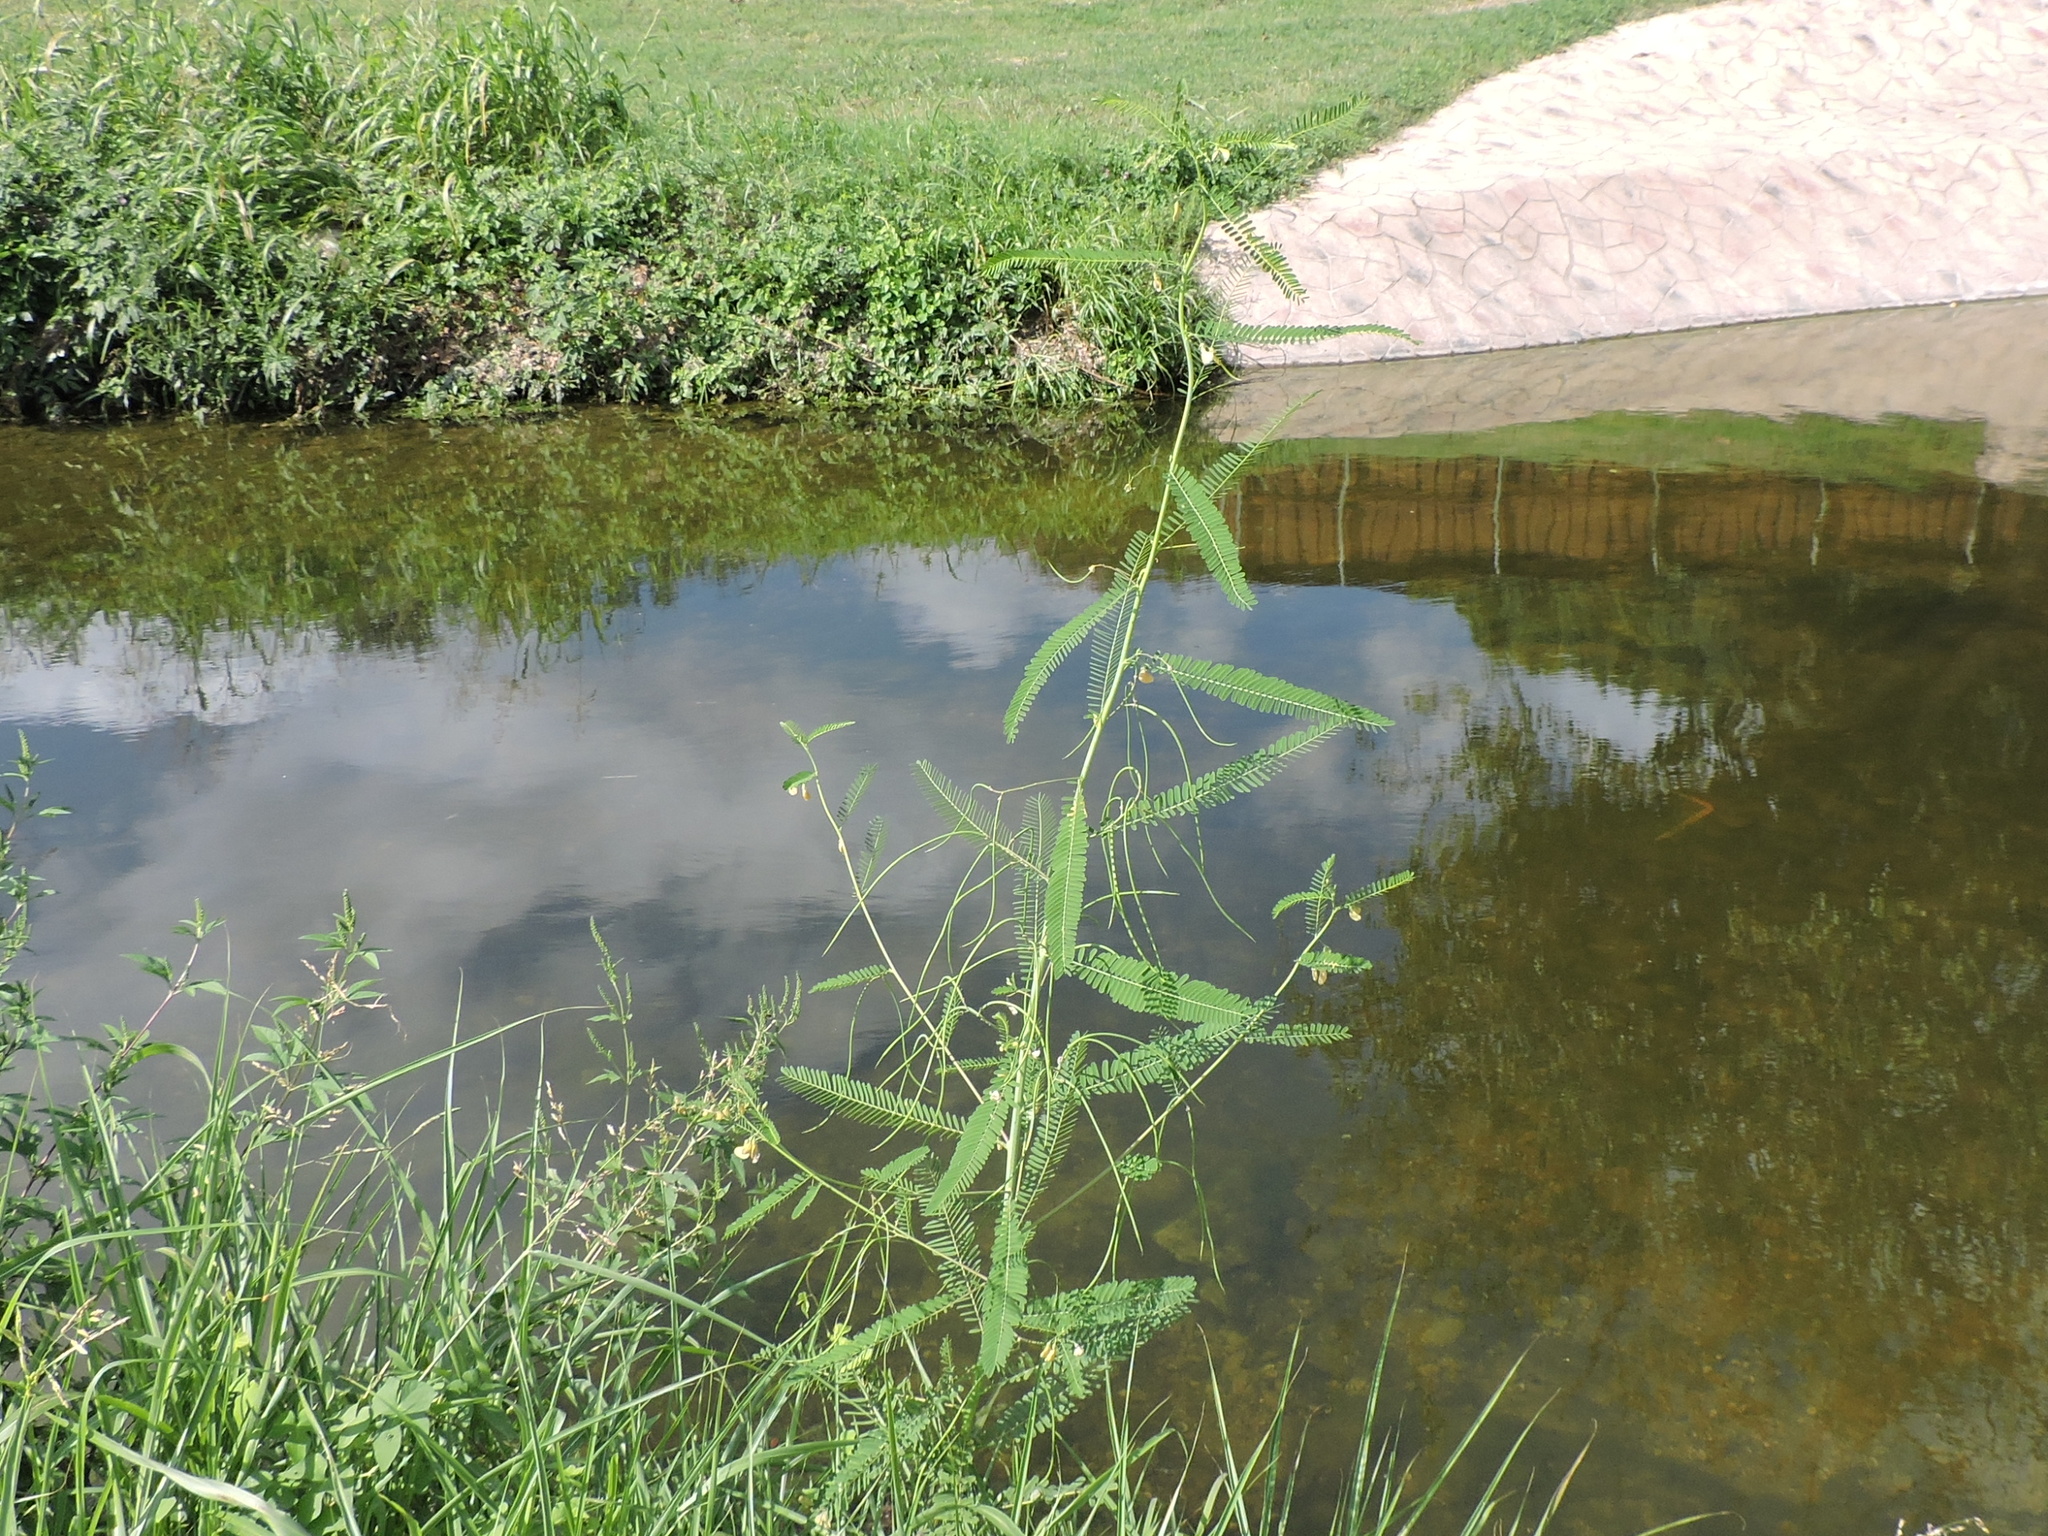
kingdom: Plantae
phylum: Tracheophyta
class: Magnoliopsida
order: Fabales
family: Fabaceae
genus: Sesbania
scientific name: Sesbania herbacea
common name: Bigpod sesbania
